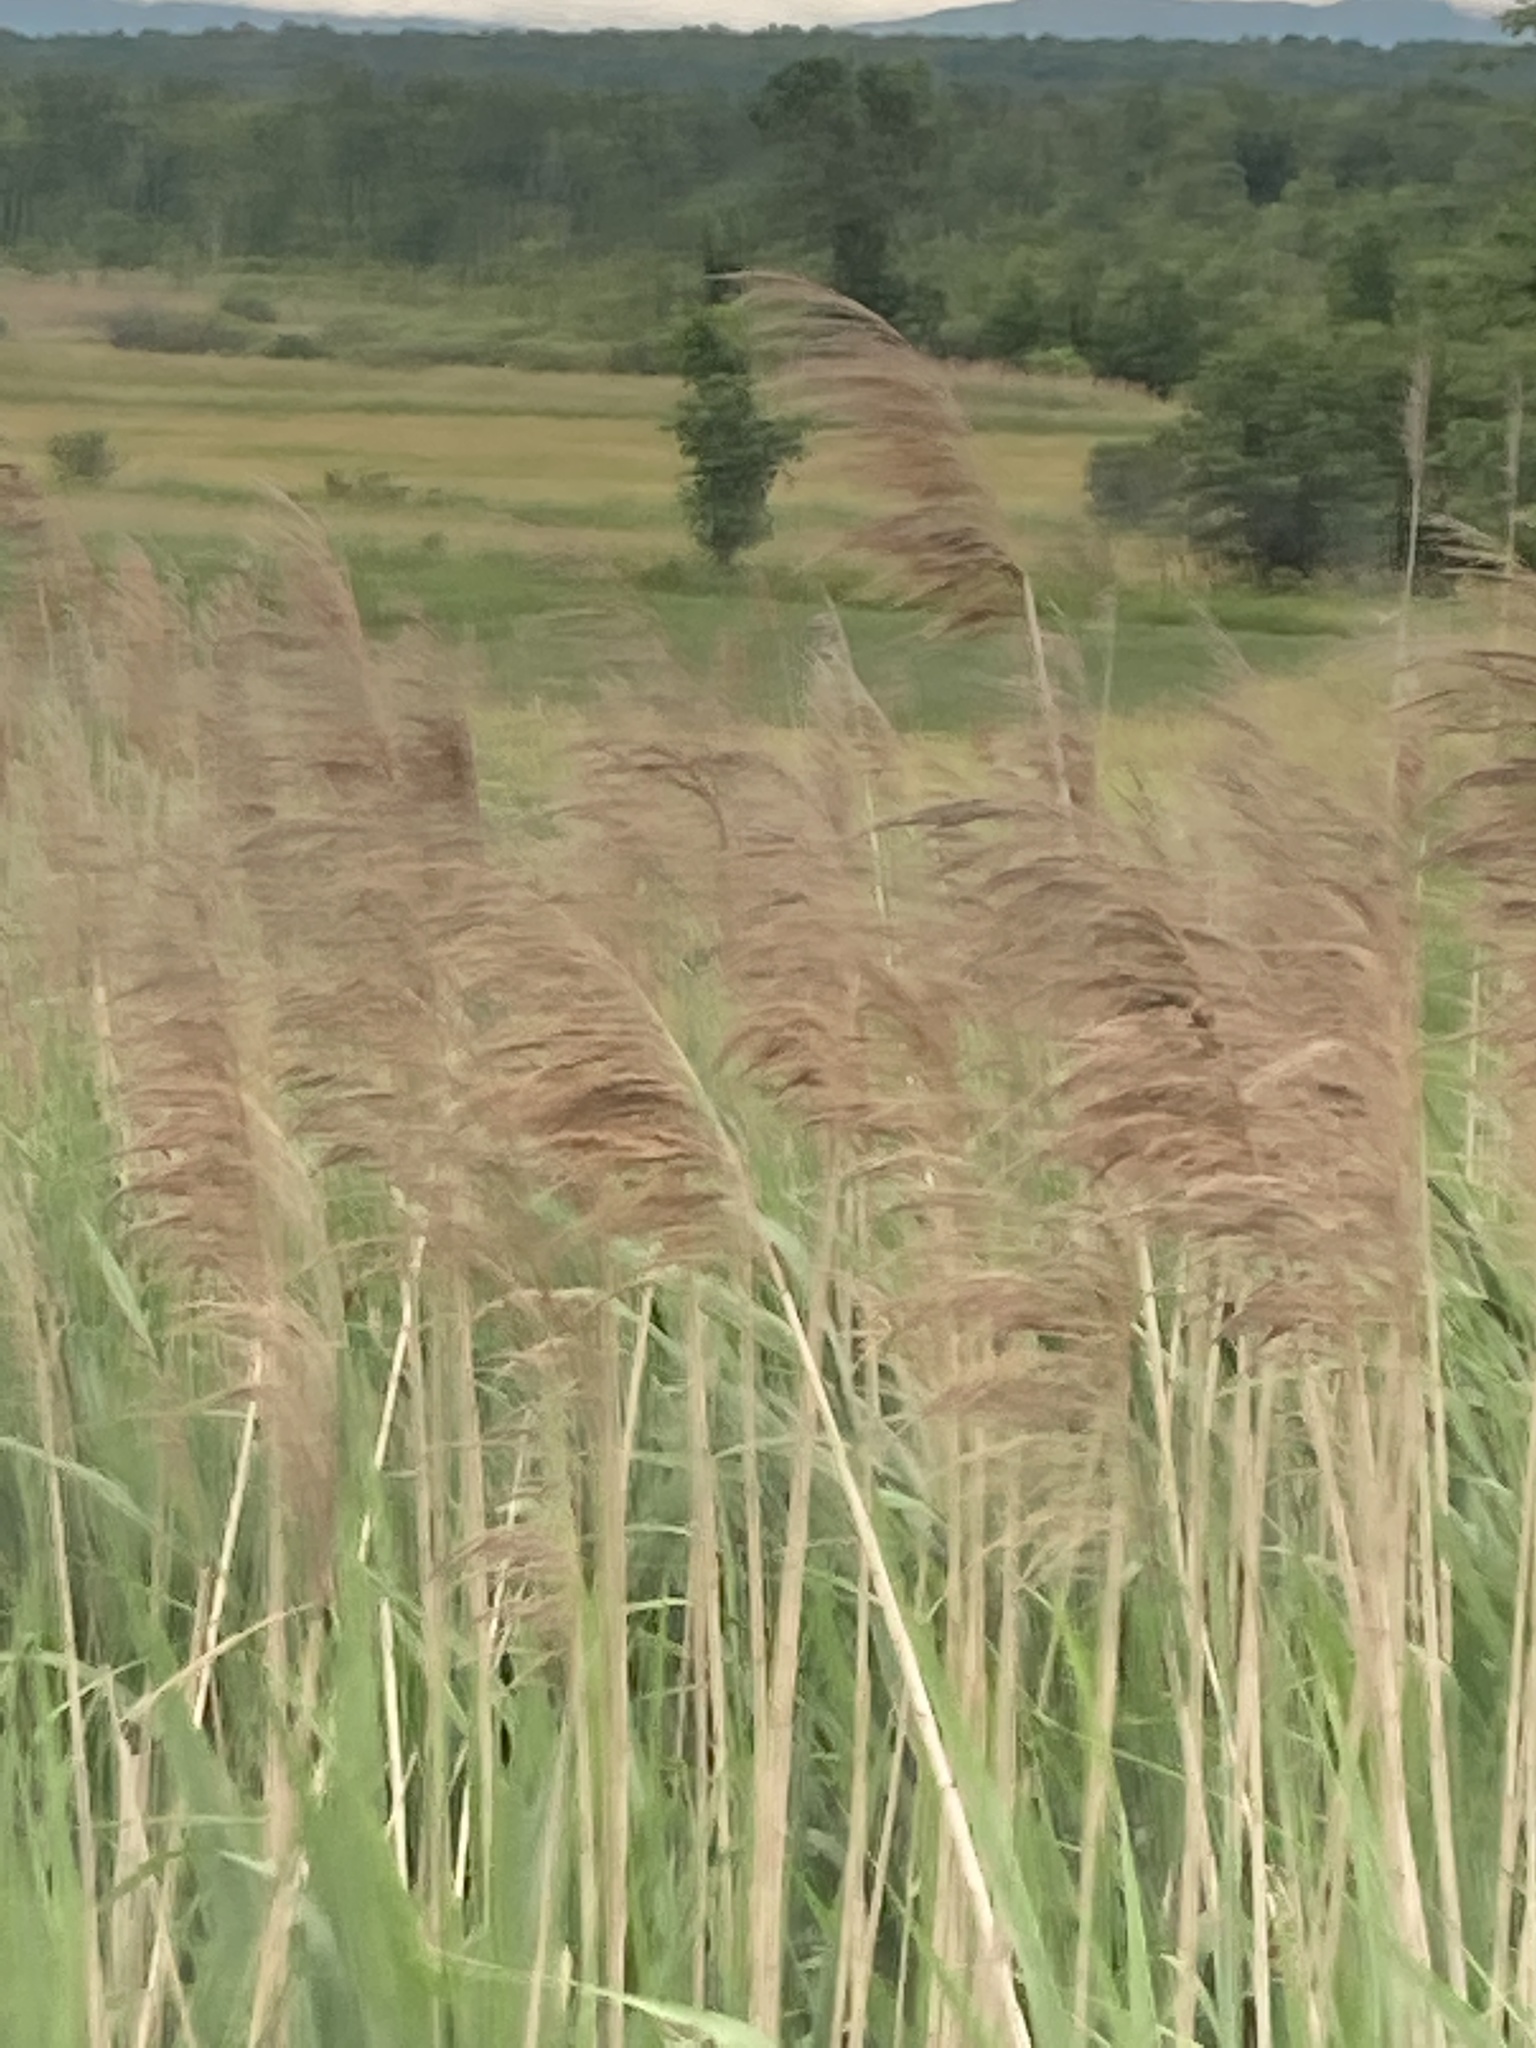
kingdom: Plantae
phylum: Tracheophyta
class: Liliopsida
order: Poales
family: Poaceae
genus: Phragmites
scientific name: Phragmites australis
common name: Common reed
